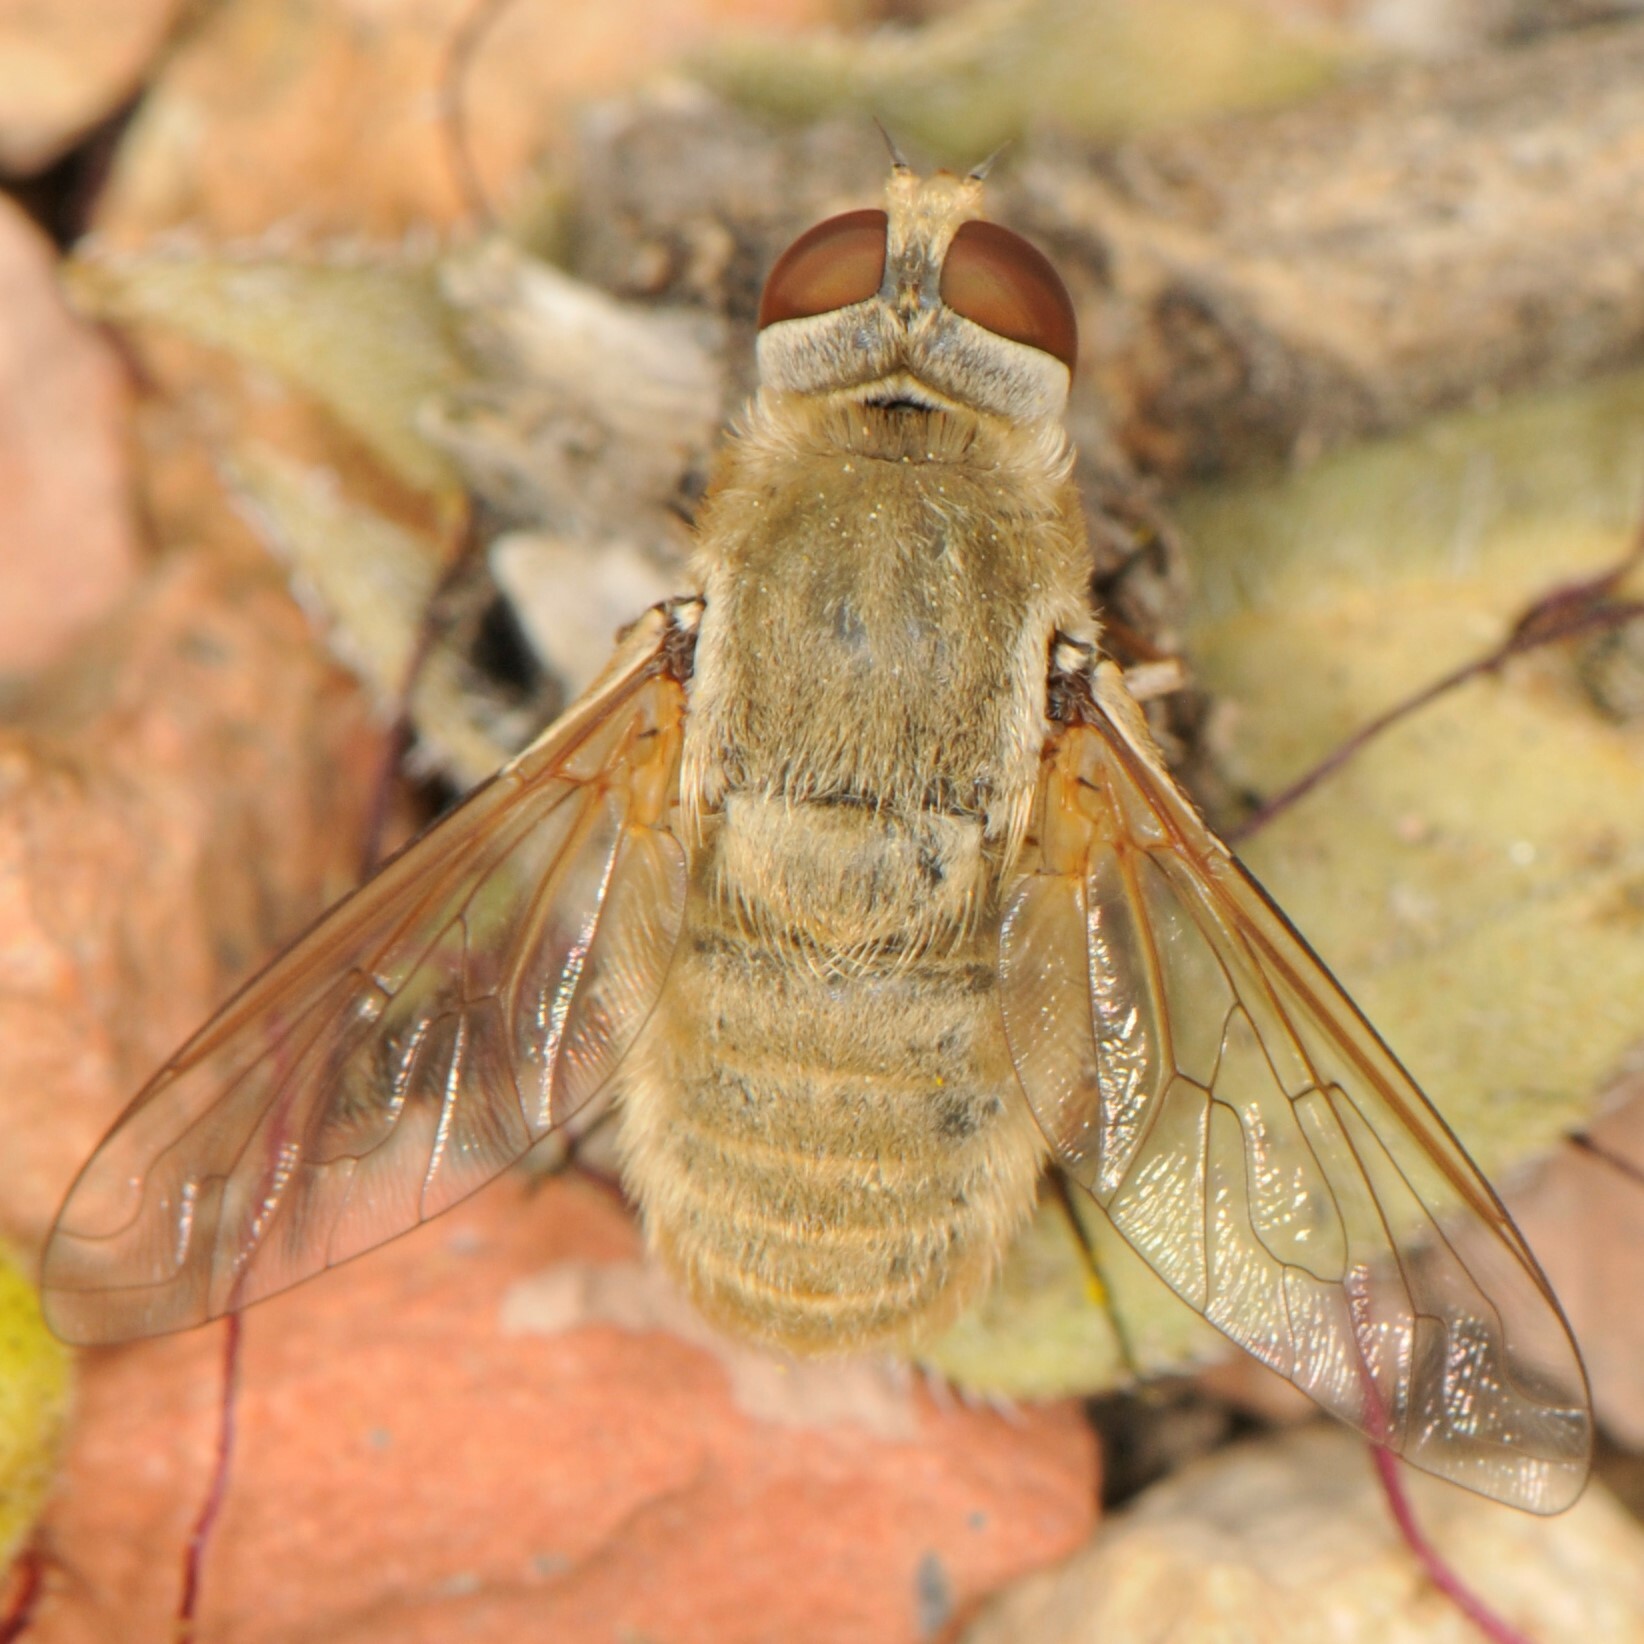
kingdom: Animalia
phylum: Arthropoda
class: Insecta
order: Diptera
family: Bombyliidae
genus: Paravilla
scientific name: Paravilla flavipilosa
